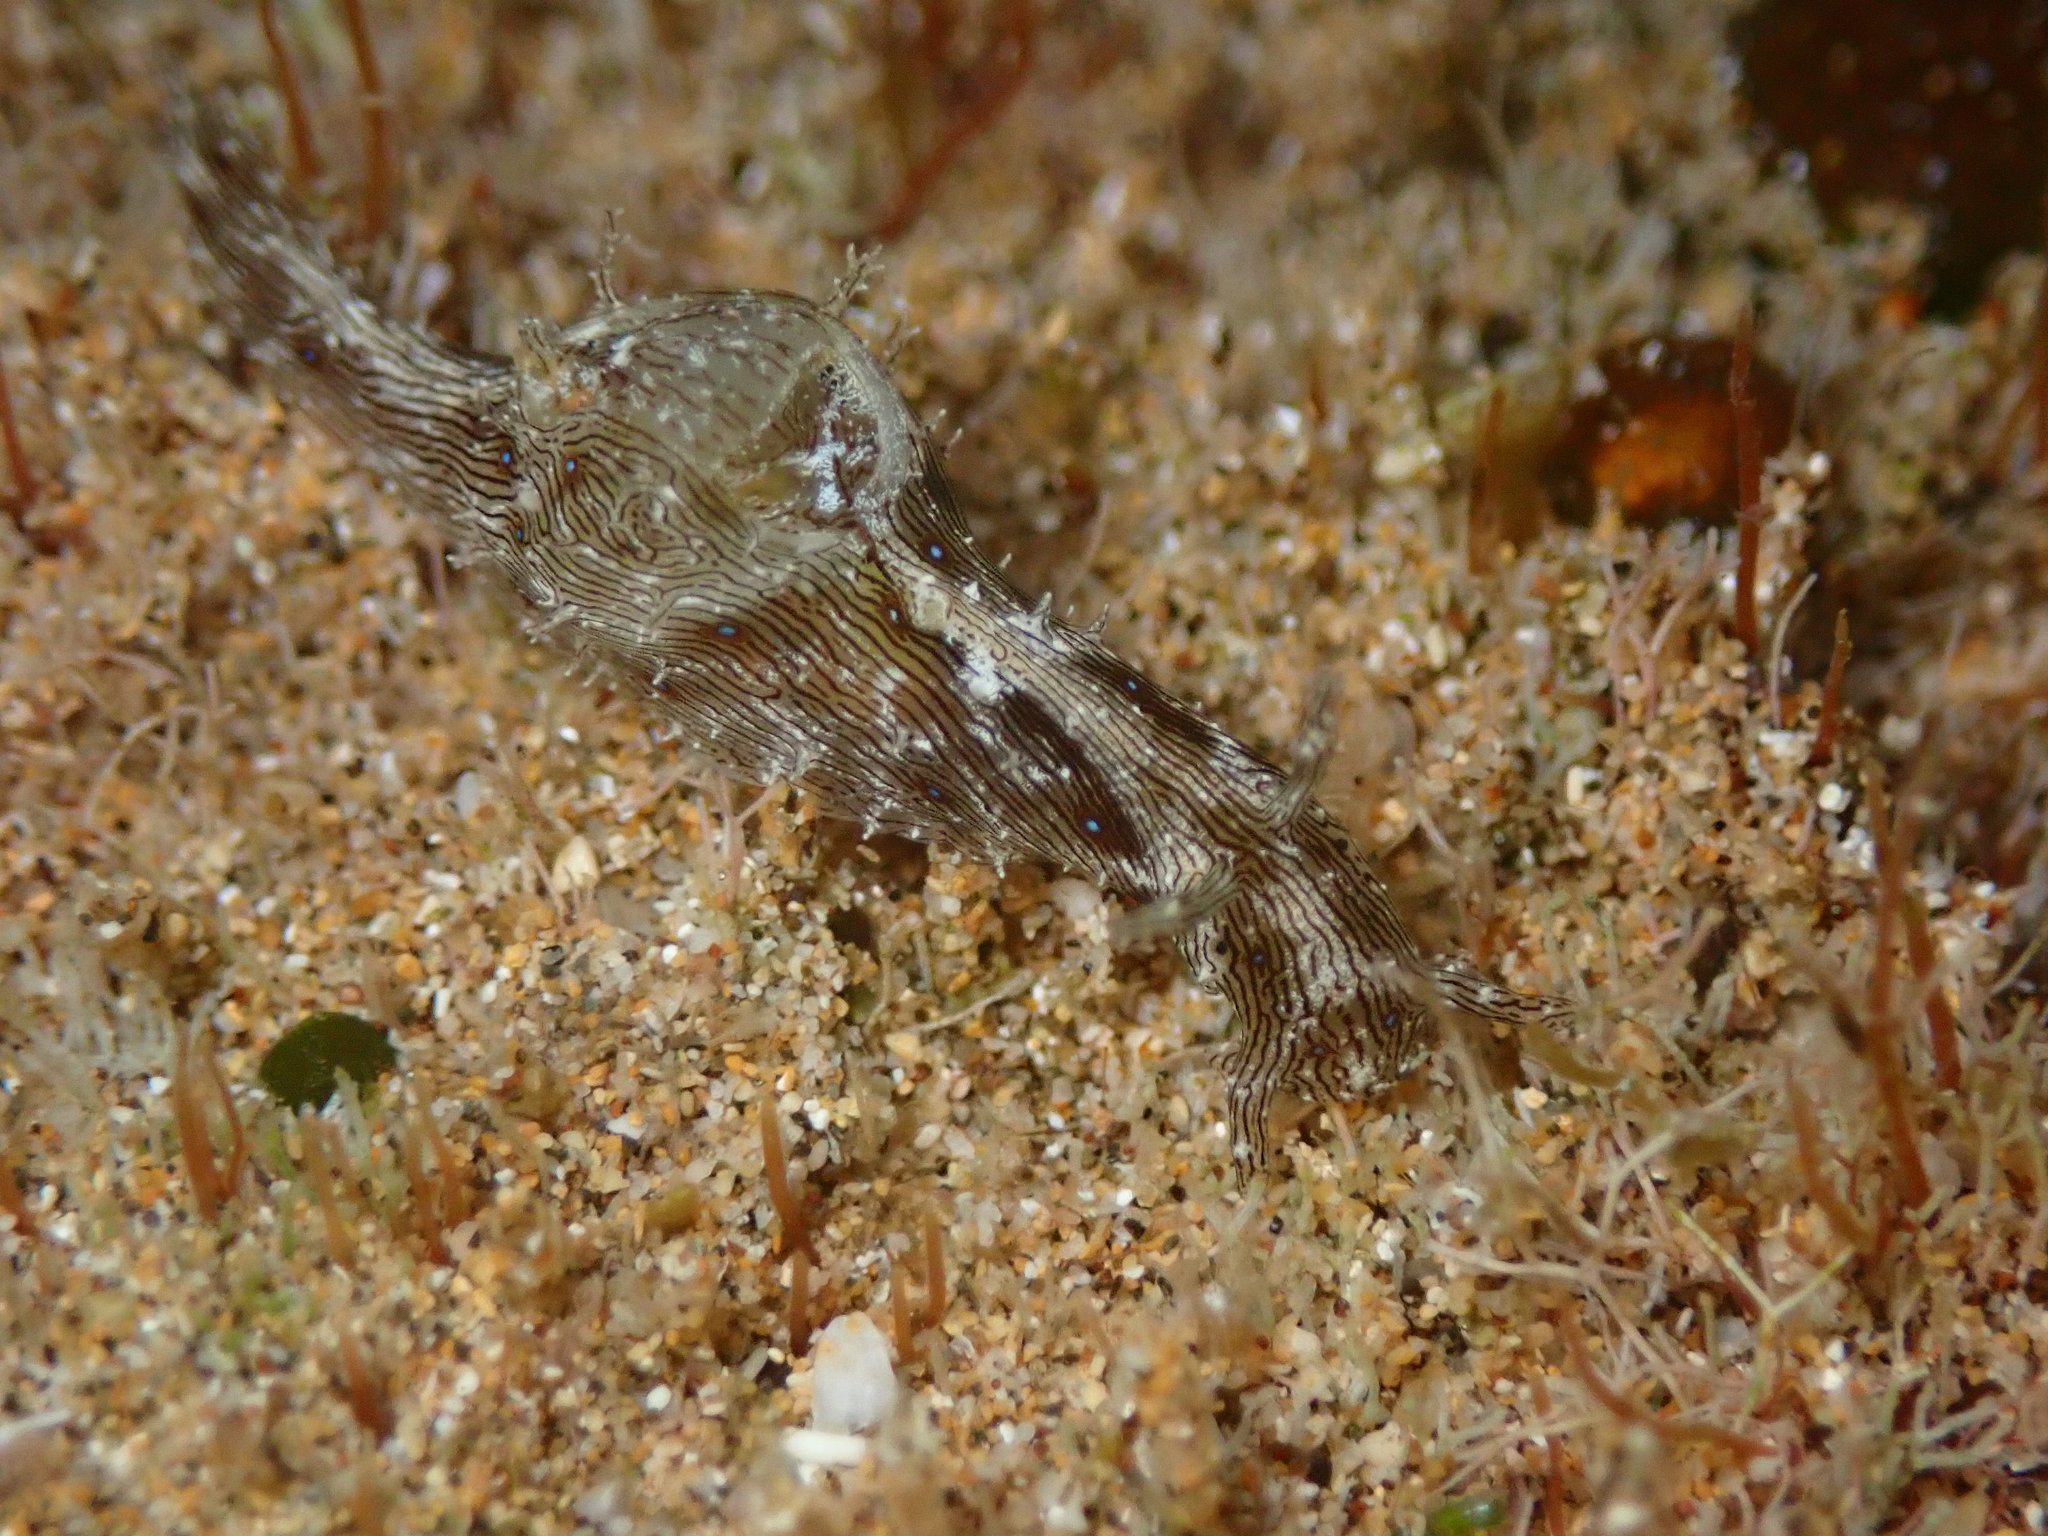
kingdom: Animalia
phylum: Mollusca
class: Gastropoda
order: Aplysiida
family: Aplysiidae
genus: Stylocheilus
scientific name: Stylocheilus striatus
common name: Striated seahare
